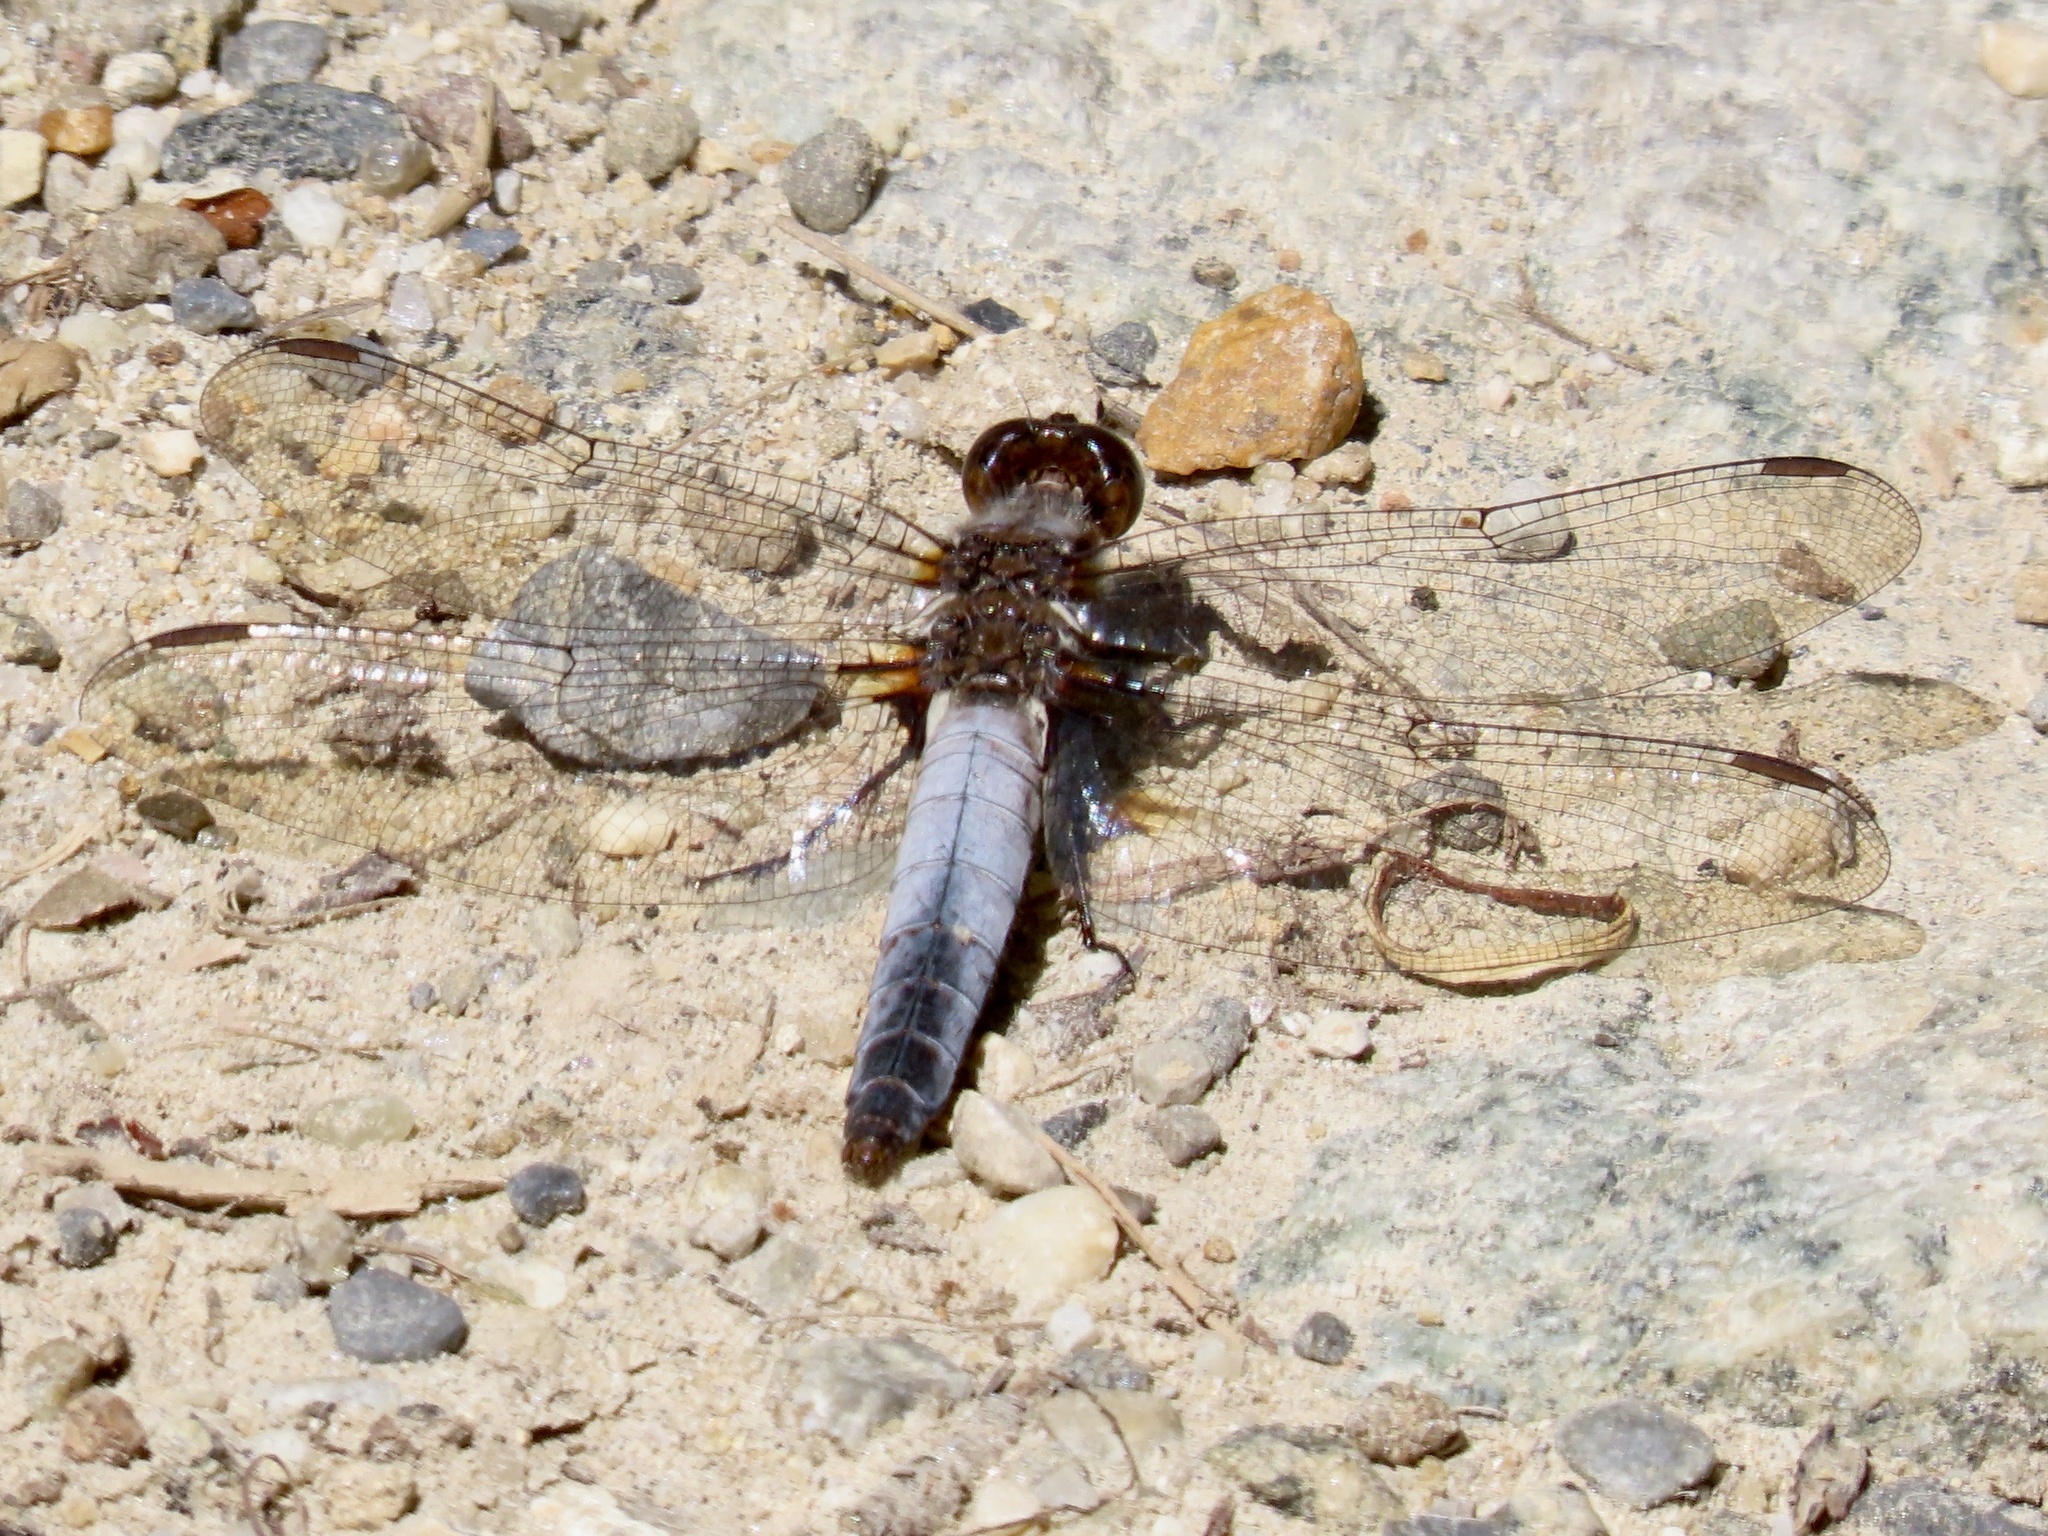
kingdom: Animalia
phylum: Arthropoda
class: Insecta
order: Odonata
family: Libellulidae
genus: Ladona
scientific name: Ladona exusta
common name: Libellule embrasée
